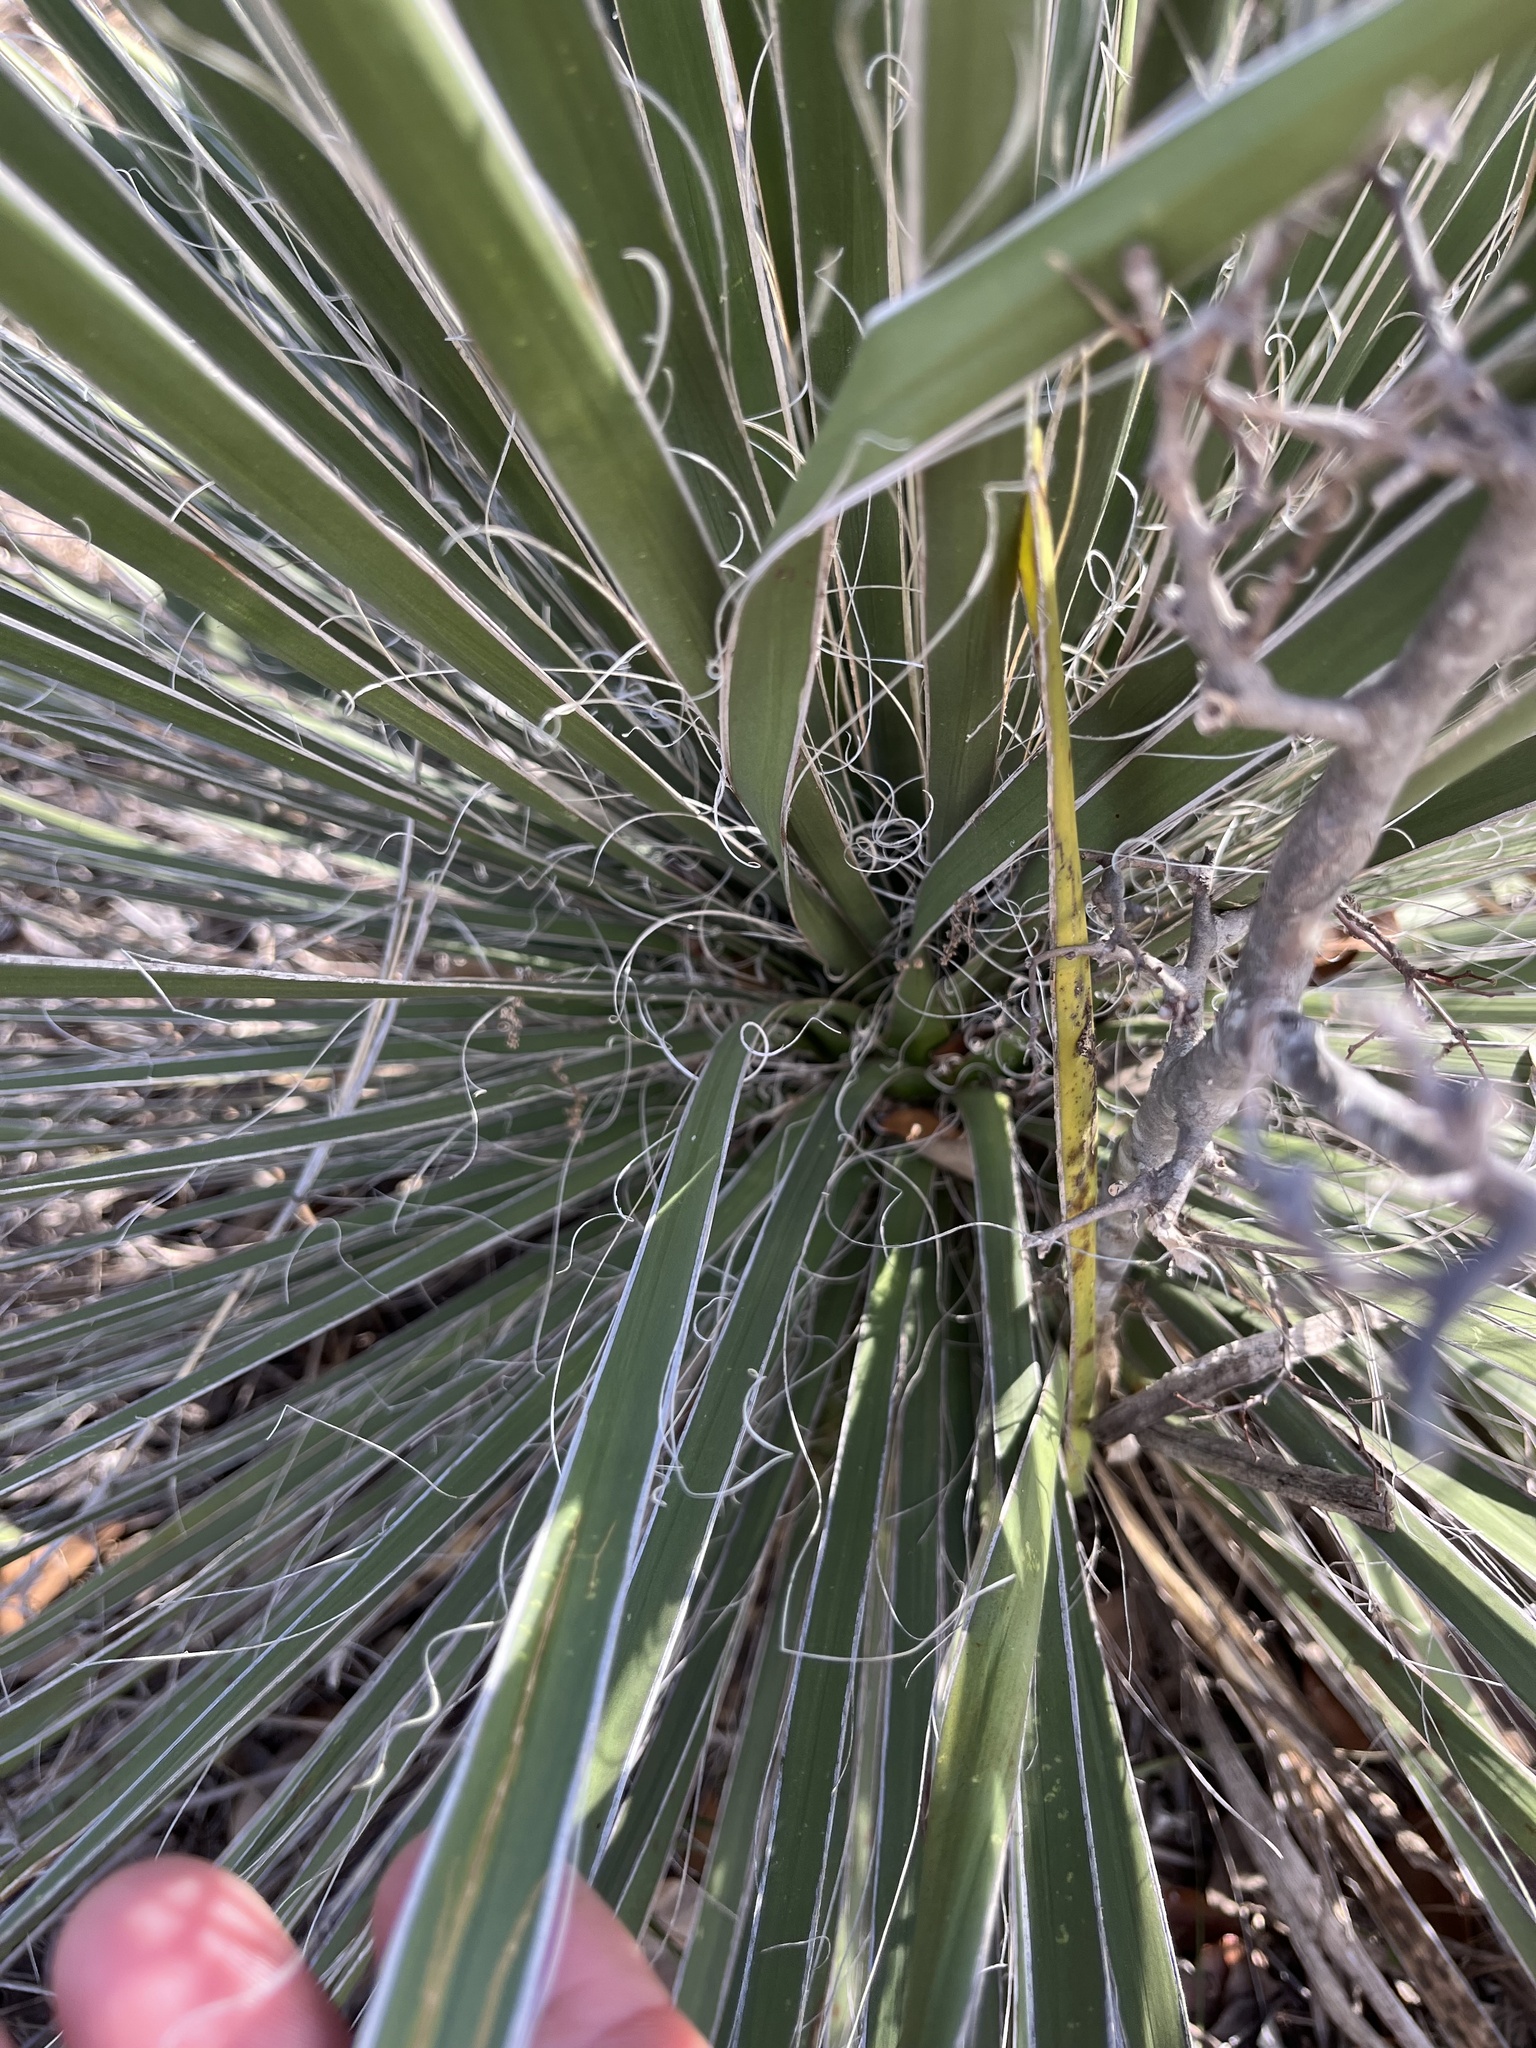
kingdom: Plantae
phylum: Tracheophyta
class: Liliopsida
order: Asparagales
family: Asparagaceae
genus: Yucca
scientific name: Yucca constricta
